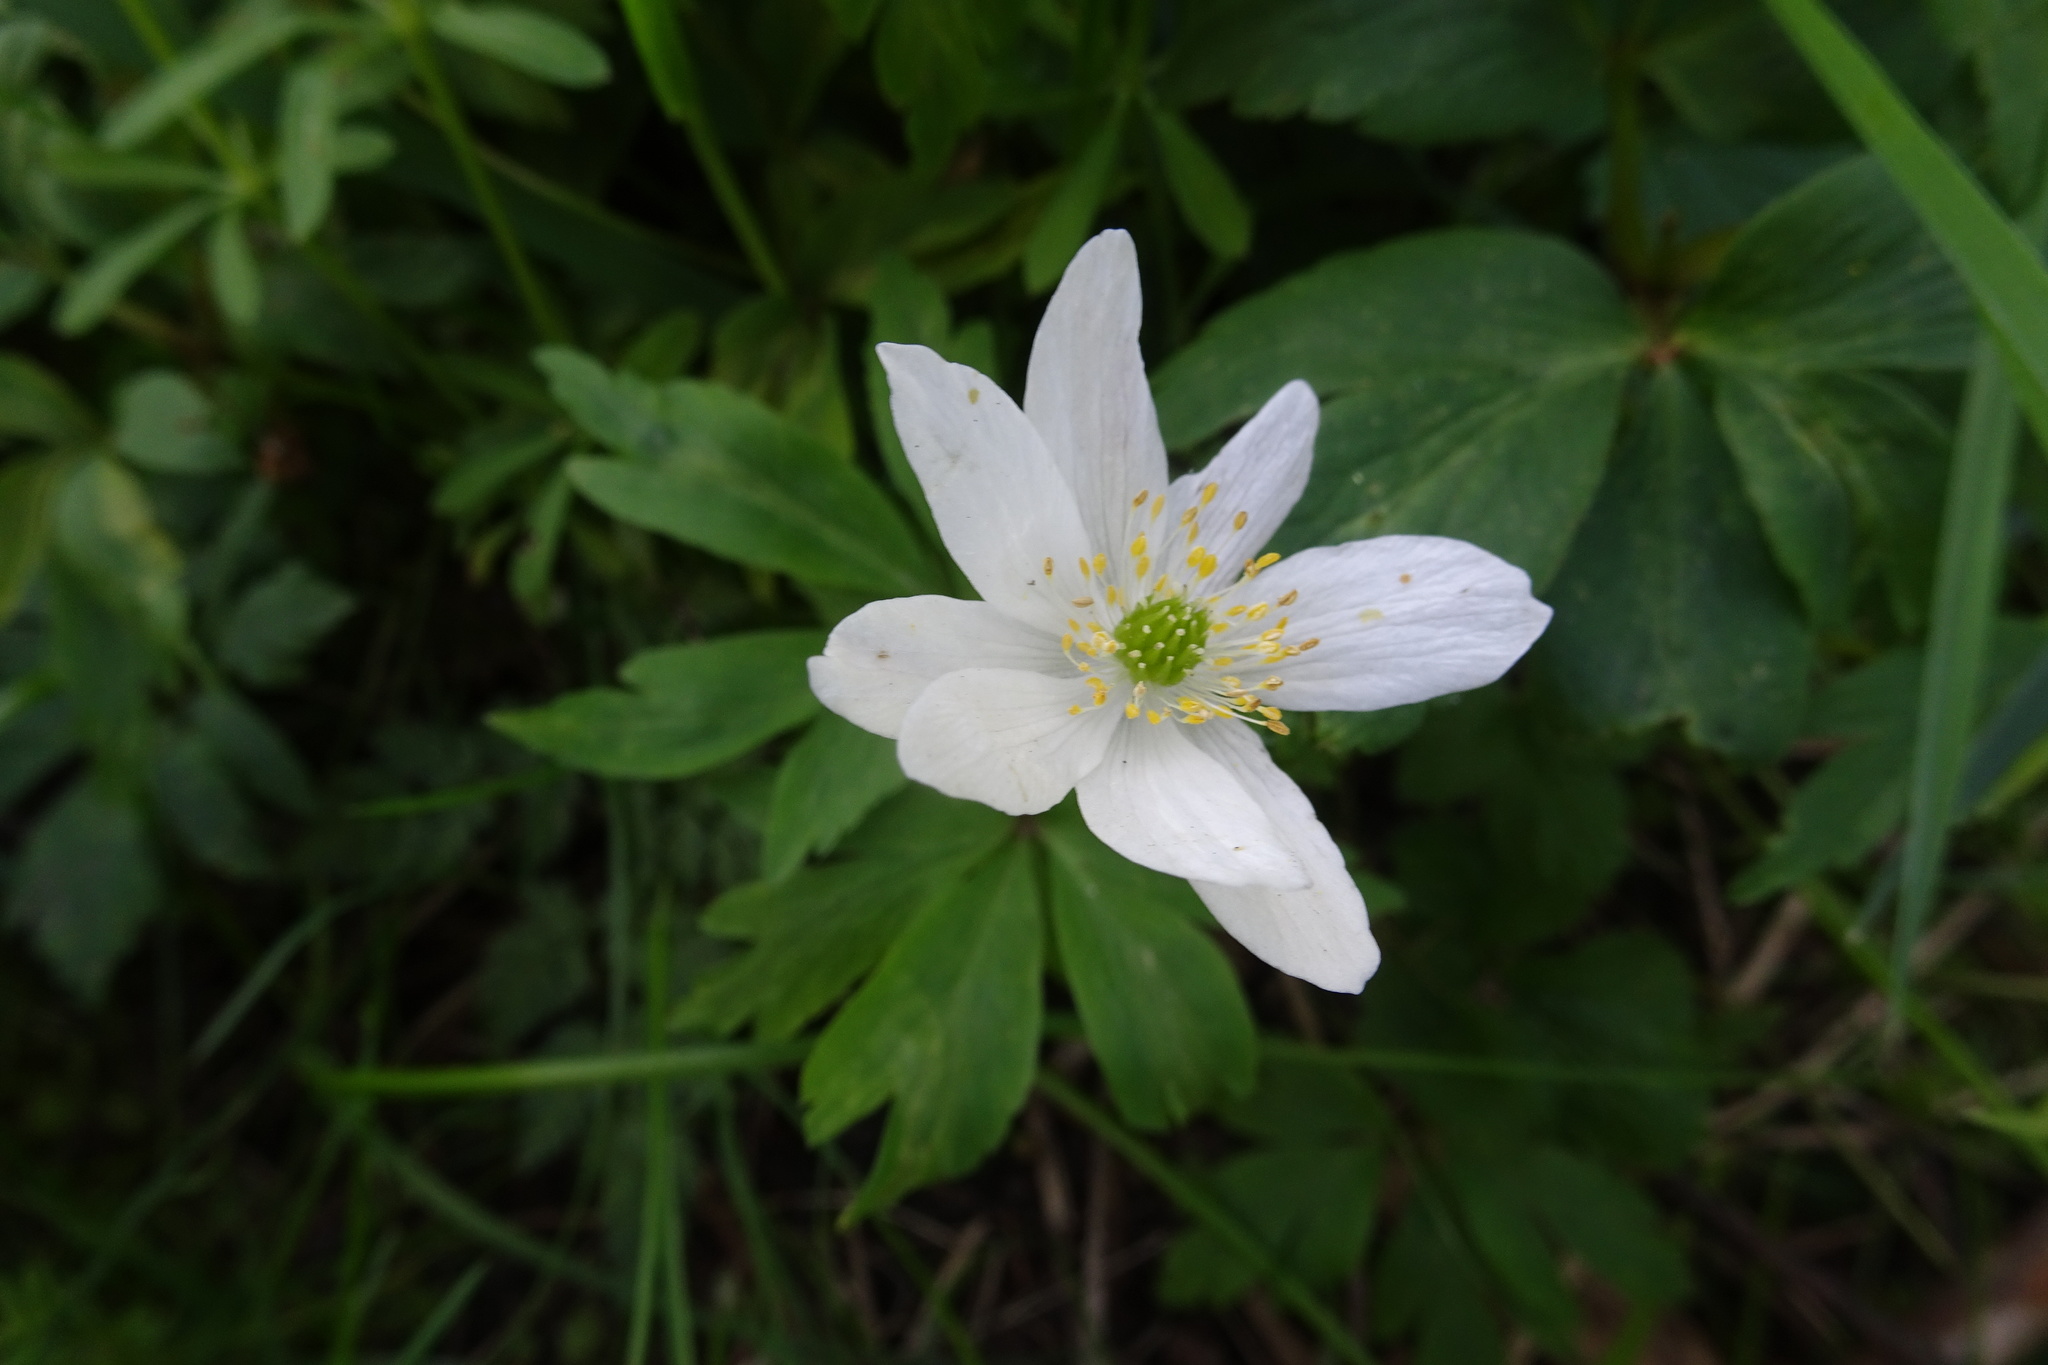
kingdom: Plantae
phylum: Tracheophyta
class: Magnoliopsida
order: Ranunculales
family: Ranunculaceae
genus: Anemone
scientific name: Anemone nemorosa
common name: Wood anemone
